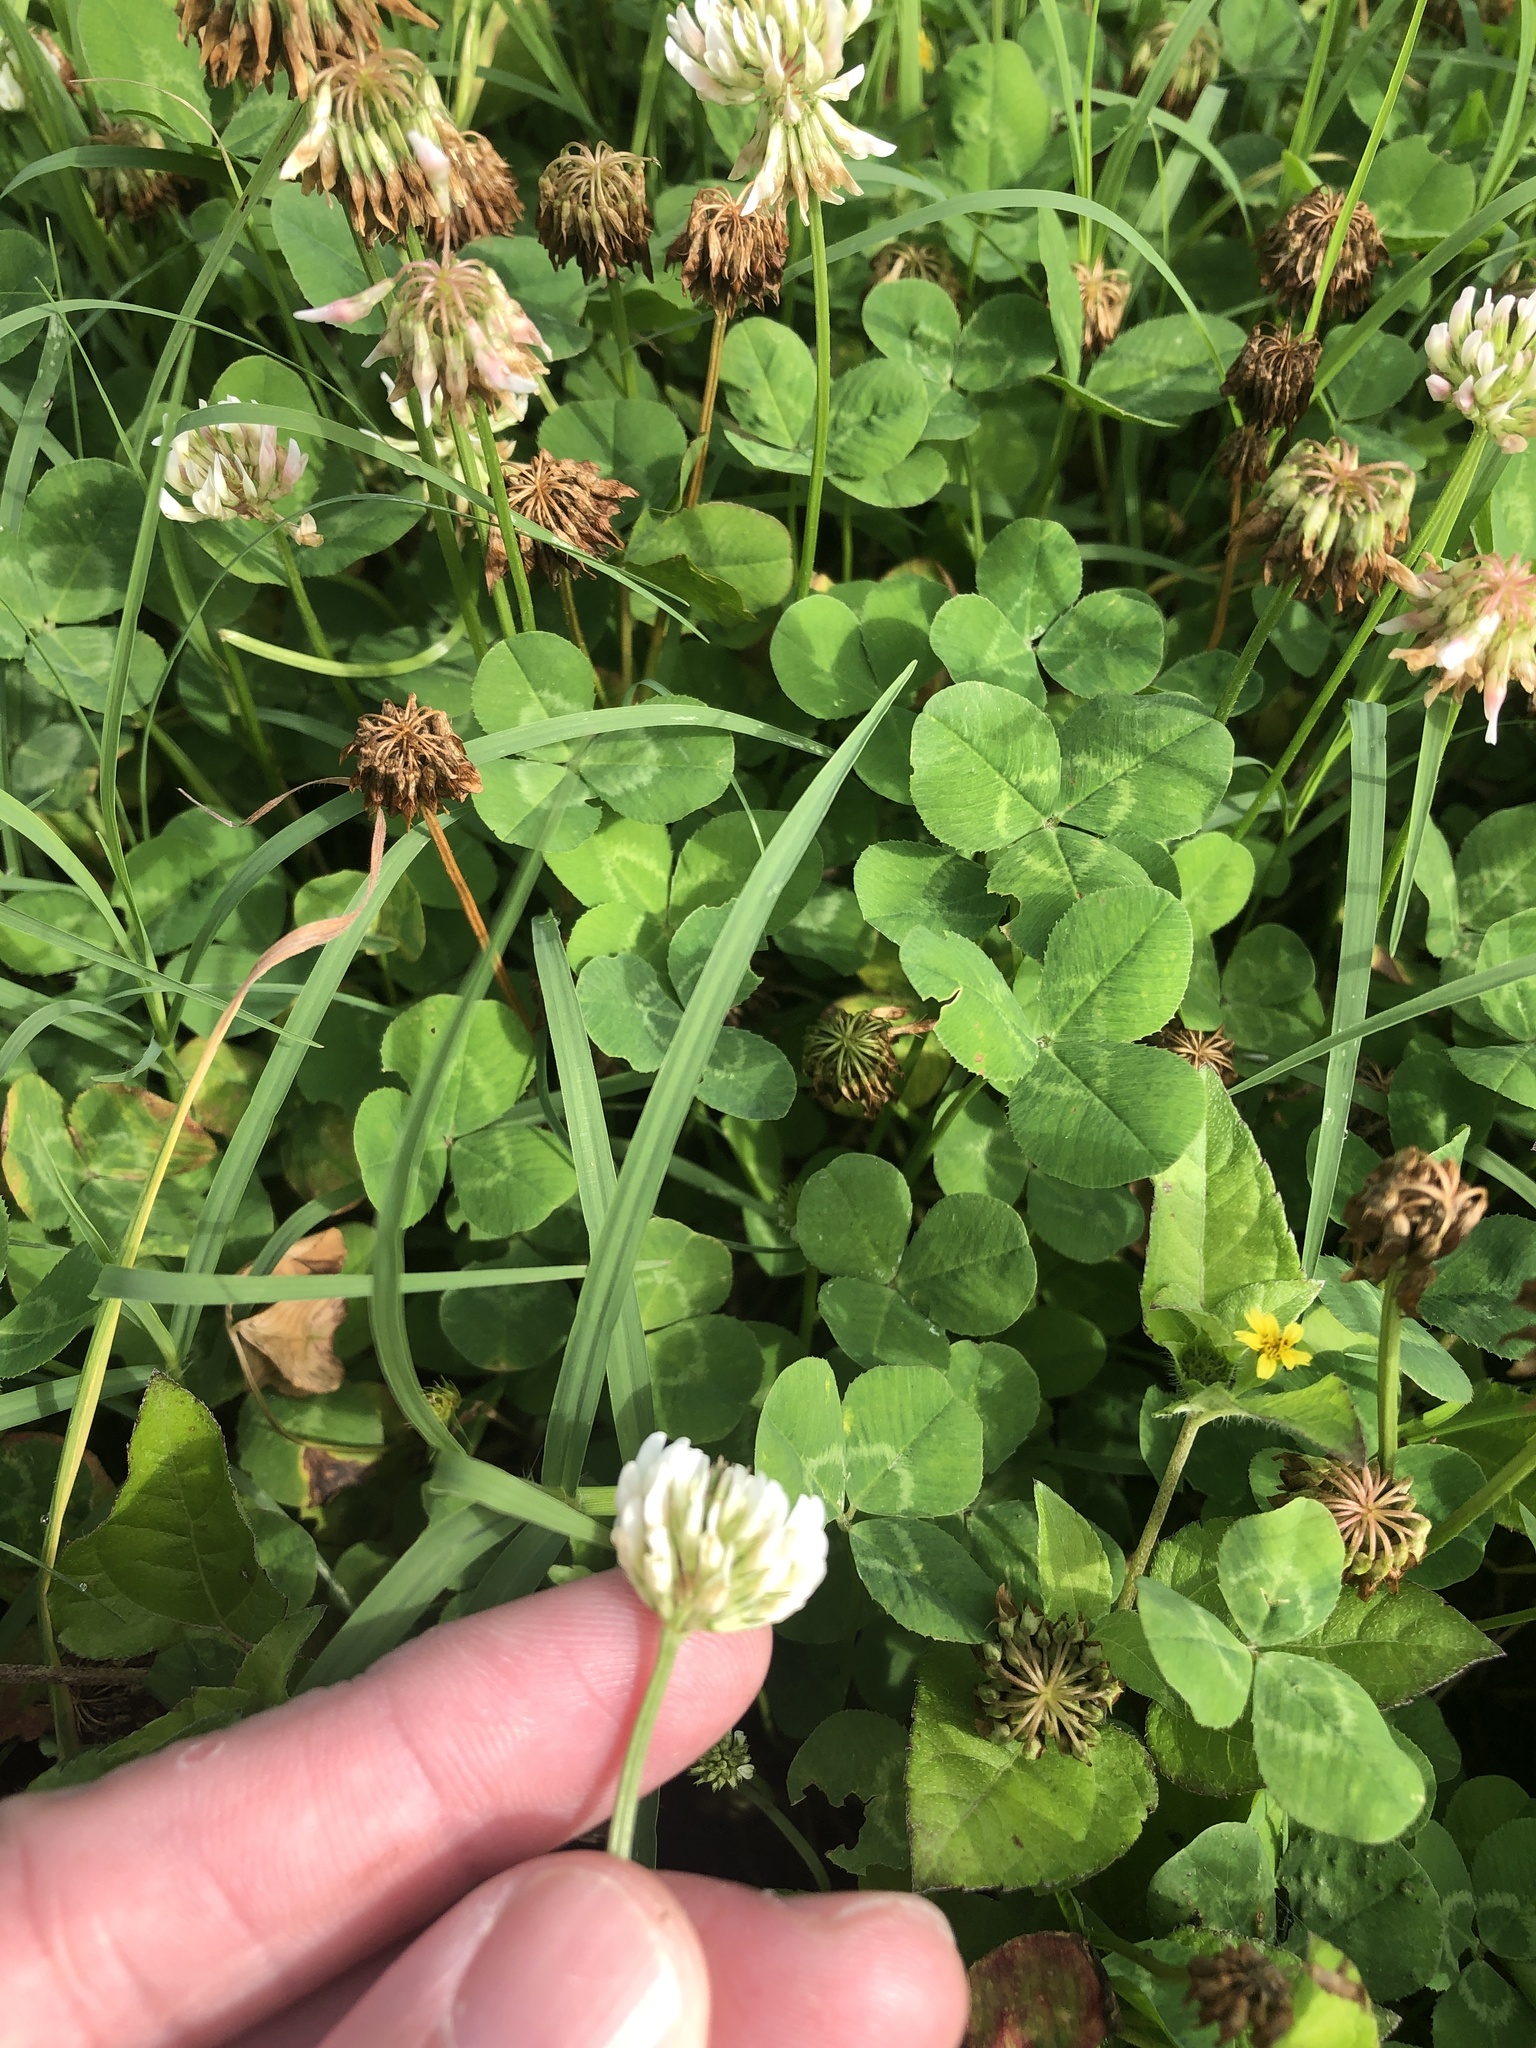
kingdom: Plantae
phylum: Tracheophyta
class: Magnoliopsida
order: Fabales
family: Fabaceae
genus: Trifolium
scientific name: Trifolium repens
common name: White clover
